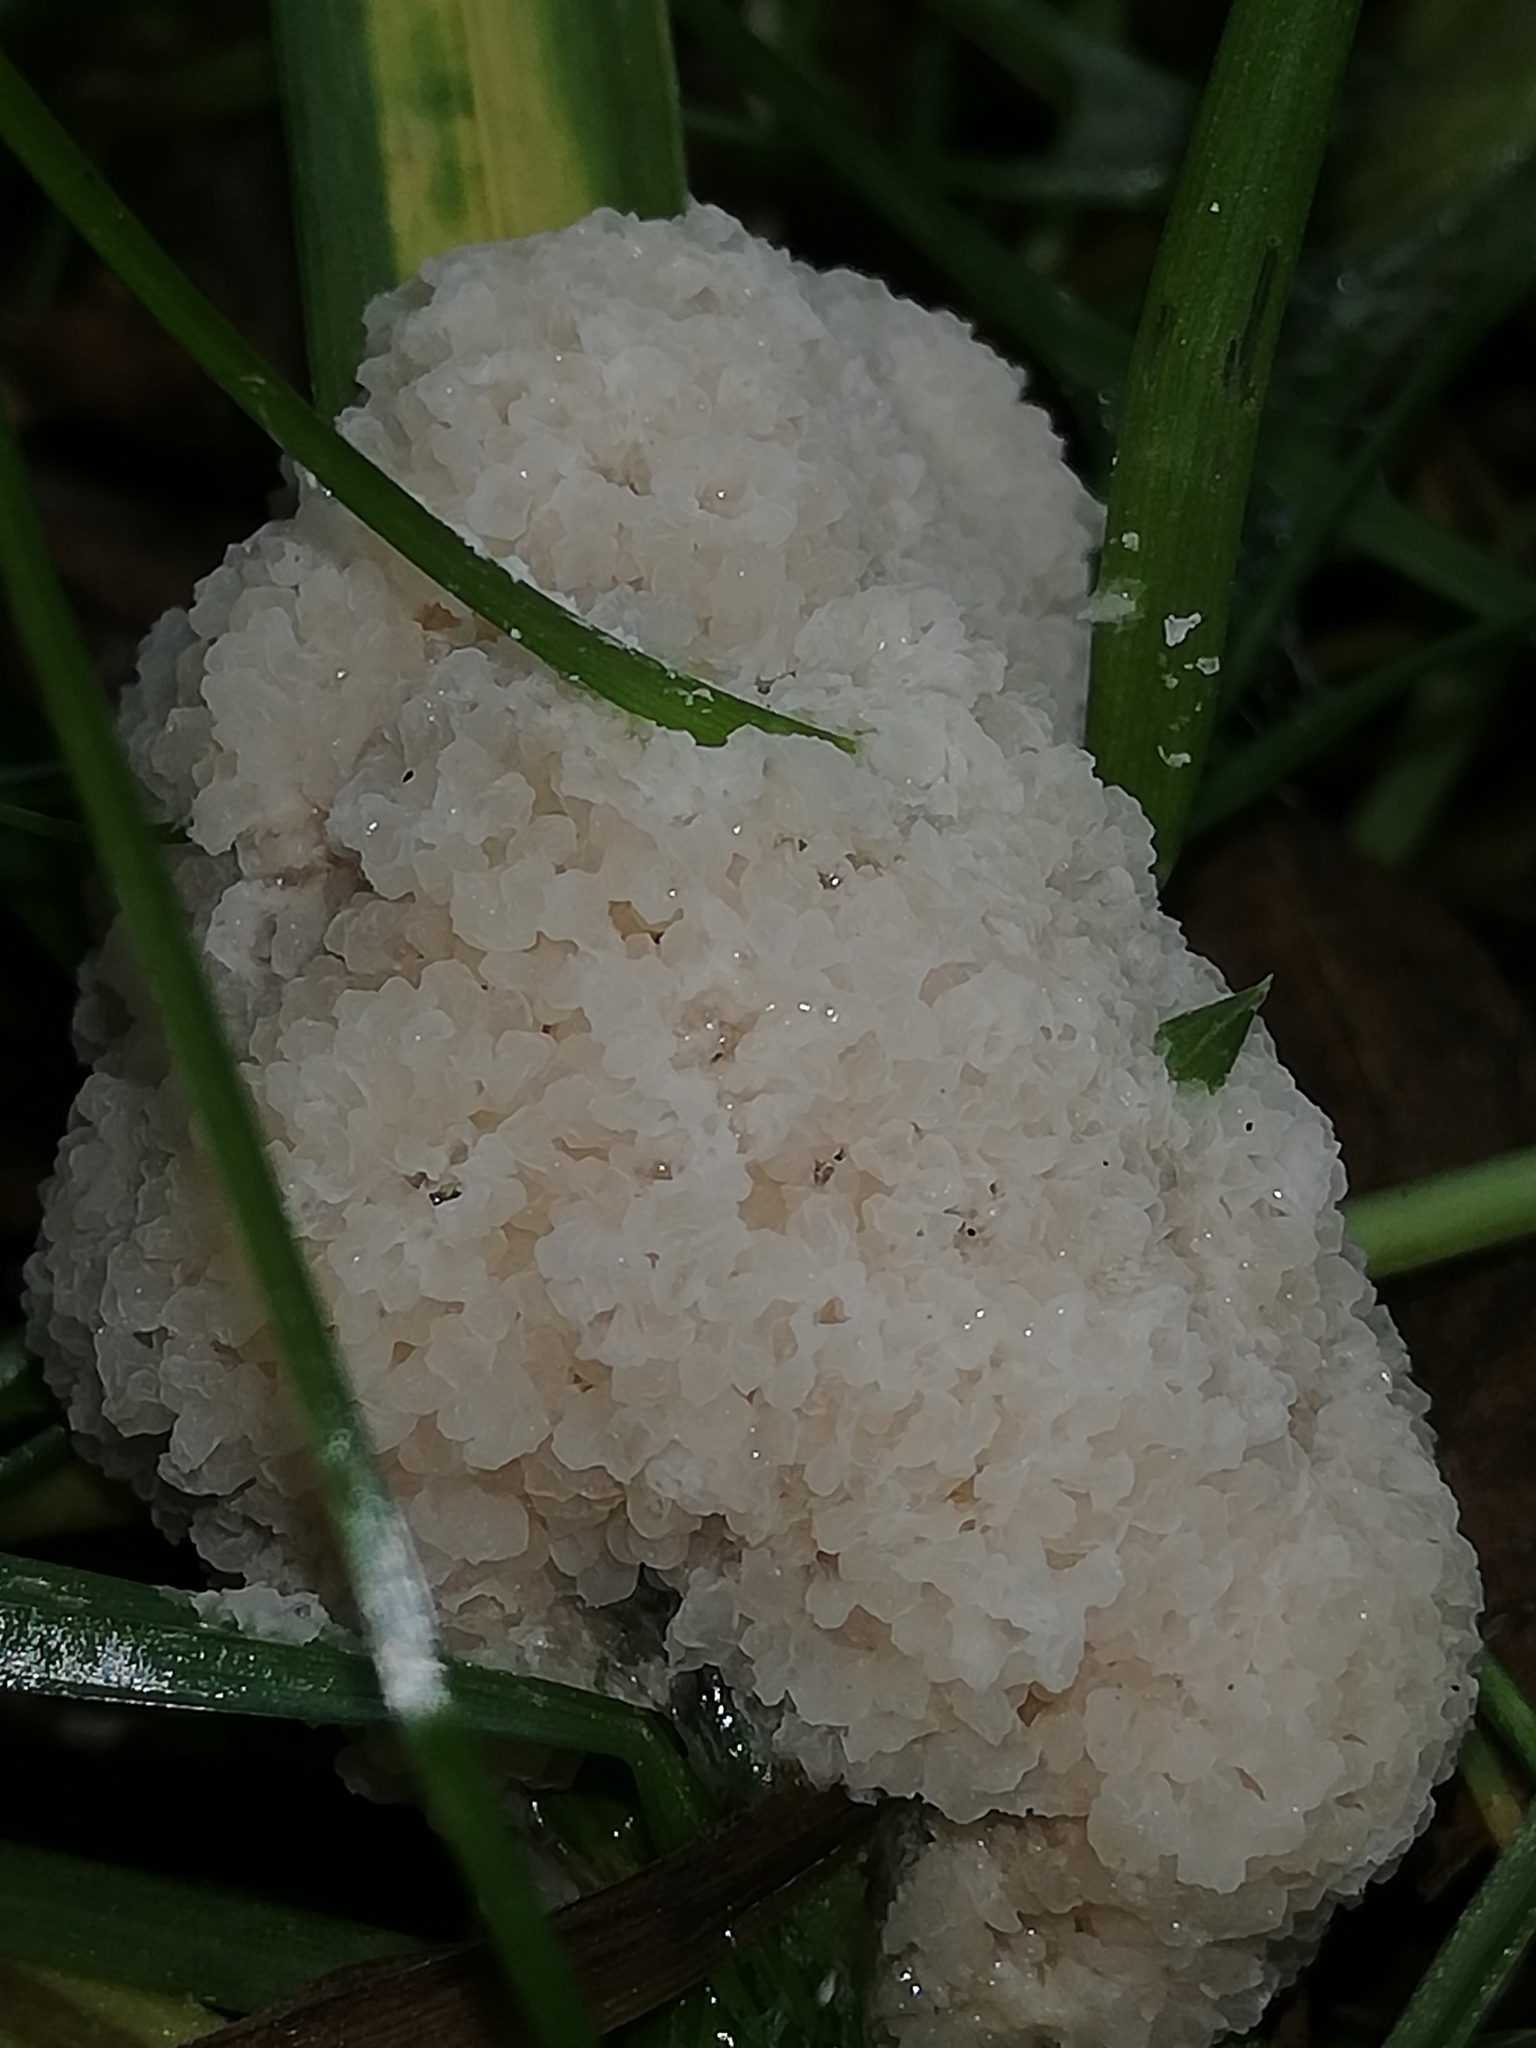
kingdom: Protozoa
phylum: Mycetozoa
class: Myxomycetes
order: Physarales
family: Physaraceae
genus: Didymium
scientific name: Didymium
